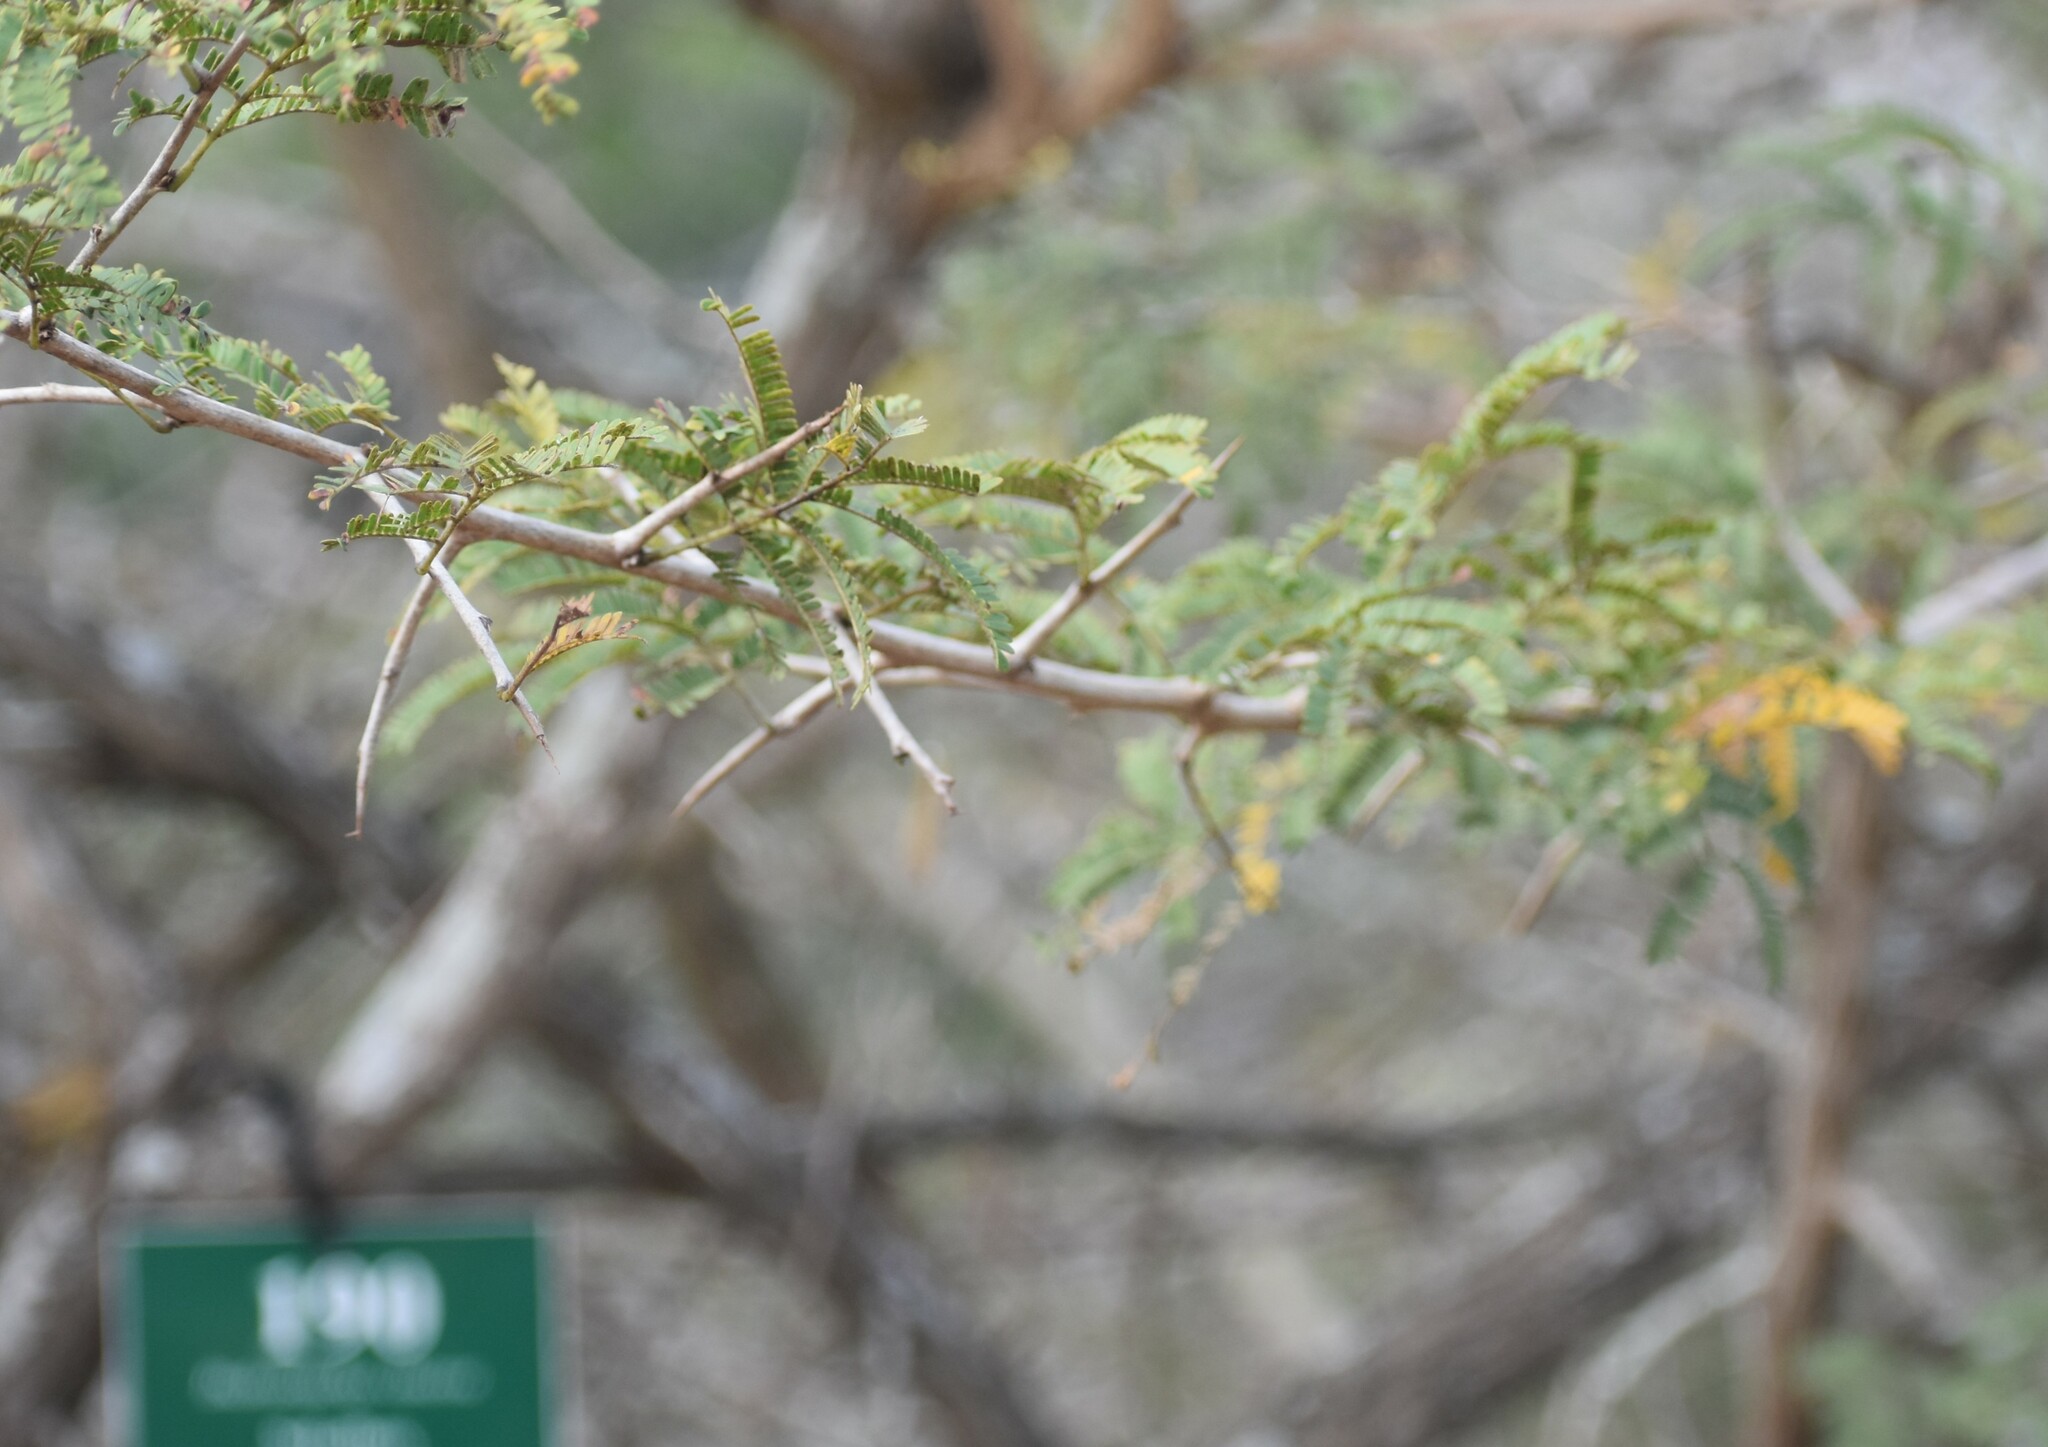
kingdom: Plantae
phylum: Tracheophyta
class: Magnoliopsida
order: Fabales
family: Fabaceae
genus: Dichrostachys
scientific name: Dichrostachys cinerea
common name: Sicklebush
